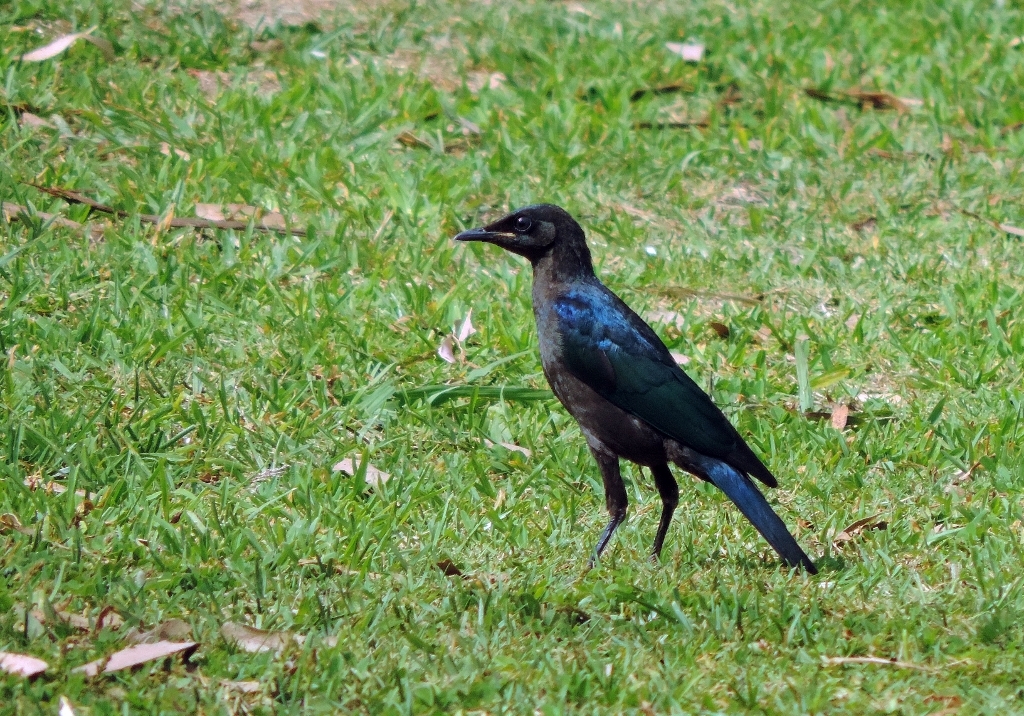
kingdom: Animalia
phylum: Chordata
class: Aves
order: Passeriformes
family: Sturnidae
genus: Lamprotornis
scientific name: Lamprotornis chalybaeus
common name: Greater blue-eared starling
